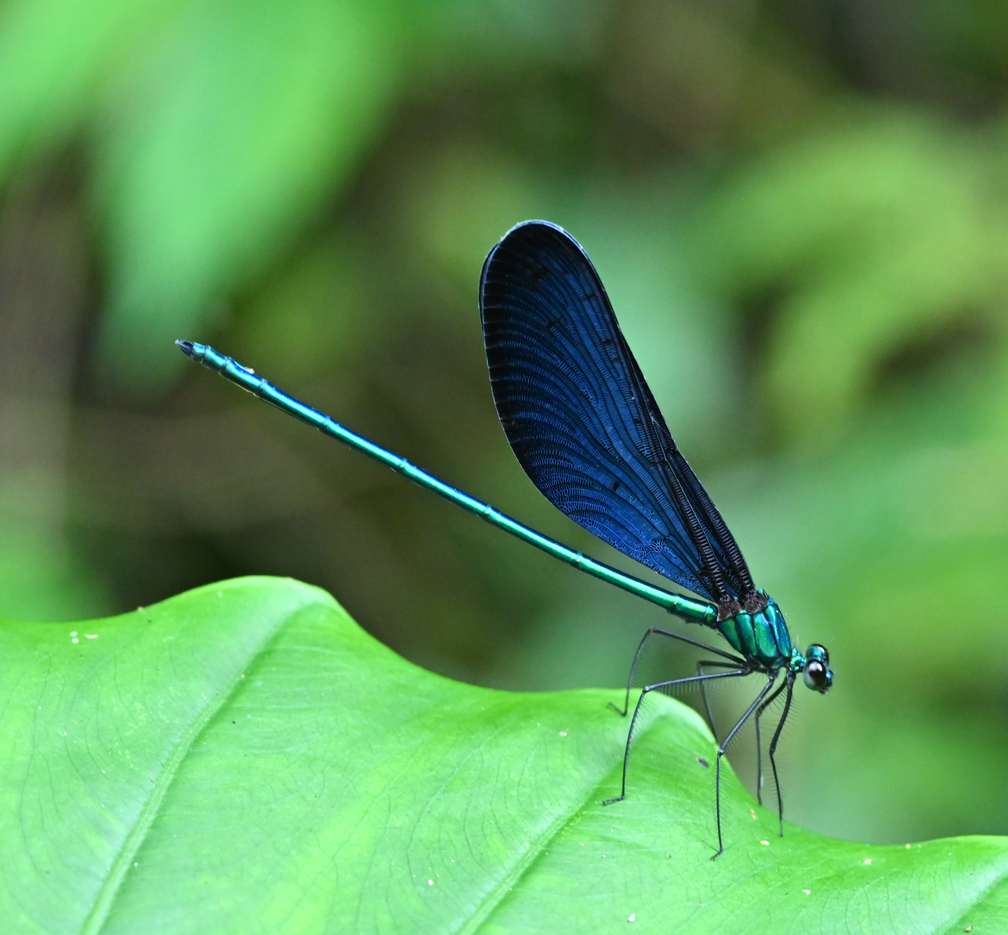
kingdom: Animalia
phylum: Arthropoda
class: Insecta
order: Odonata
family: Calopterygidae
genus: Matrona
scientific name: Matrona cyanoptera
